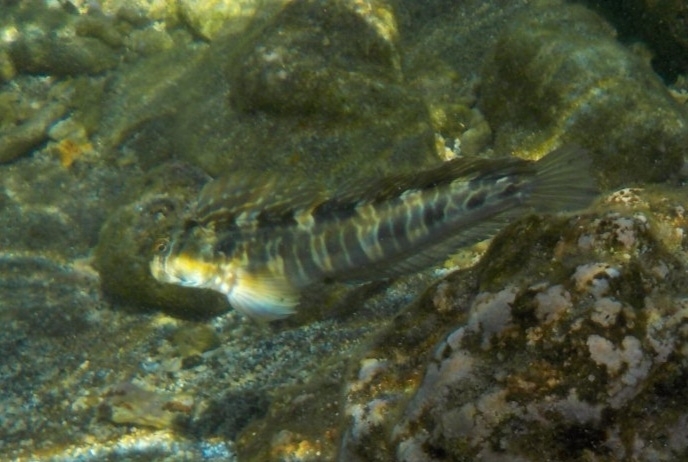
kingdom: Animalia
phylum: Chordata
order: Perciformes
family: Blenniidae
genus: Istiblennius
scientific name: Istiblennius edentulus
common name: Rippled rockskipper
